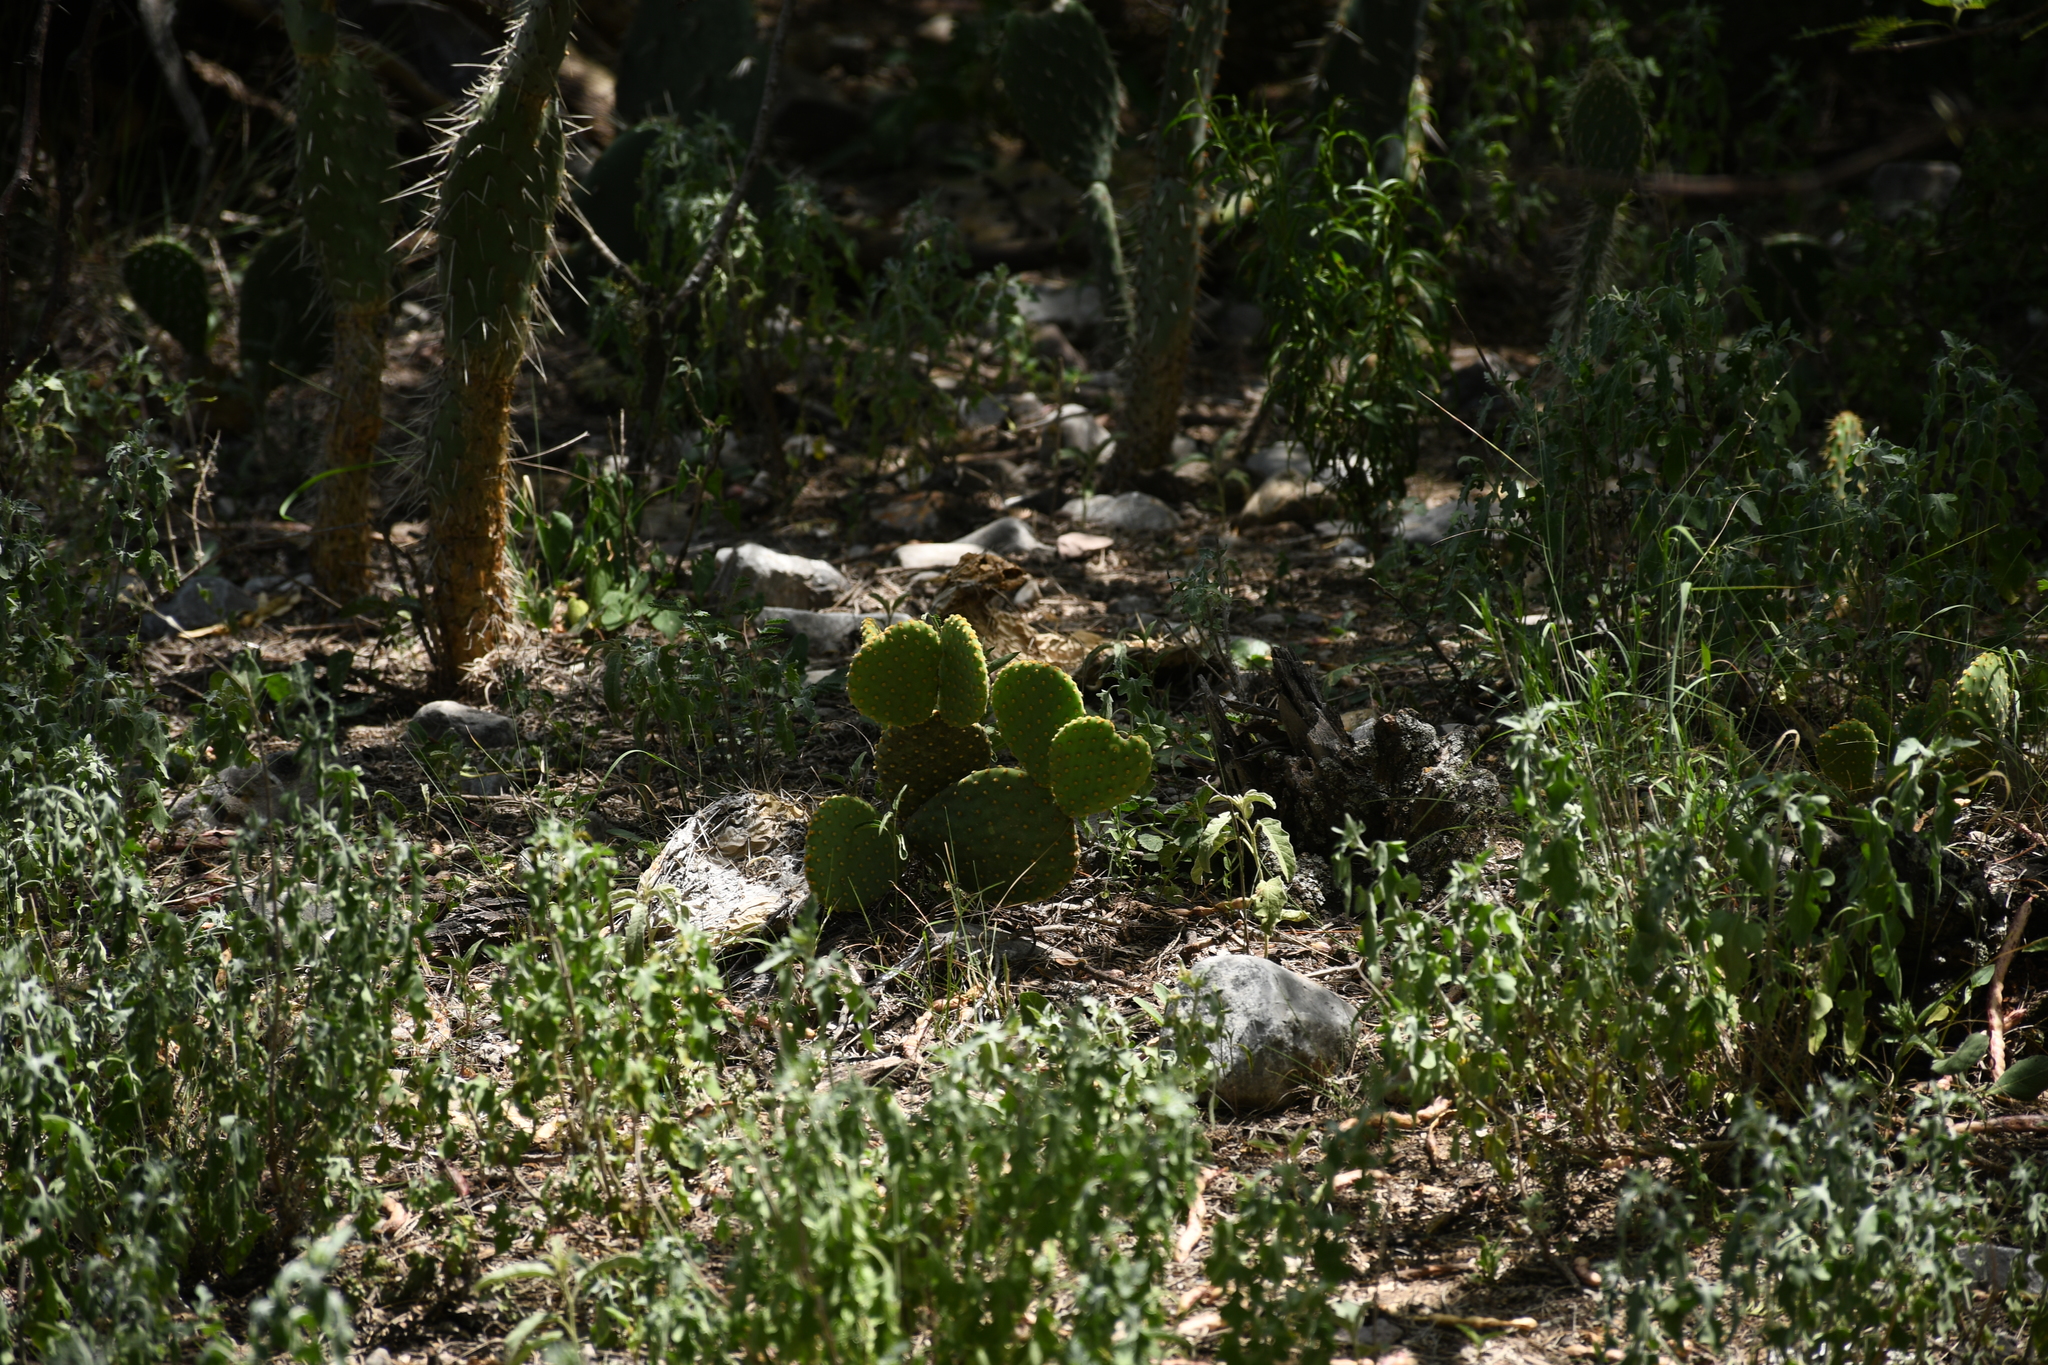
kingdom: Plantae
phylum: Tracheophyta
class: Magnoliopsida
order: Caryophyllales
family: Cactaceae
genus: Opuntia
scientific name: Opuntia microdasys
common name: Angel's-wings
